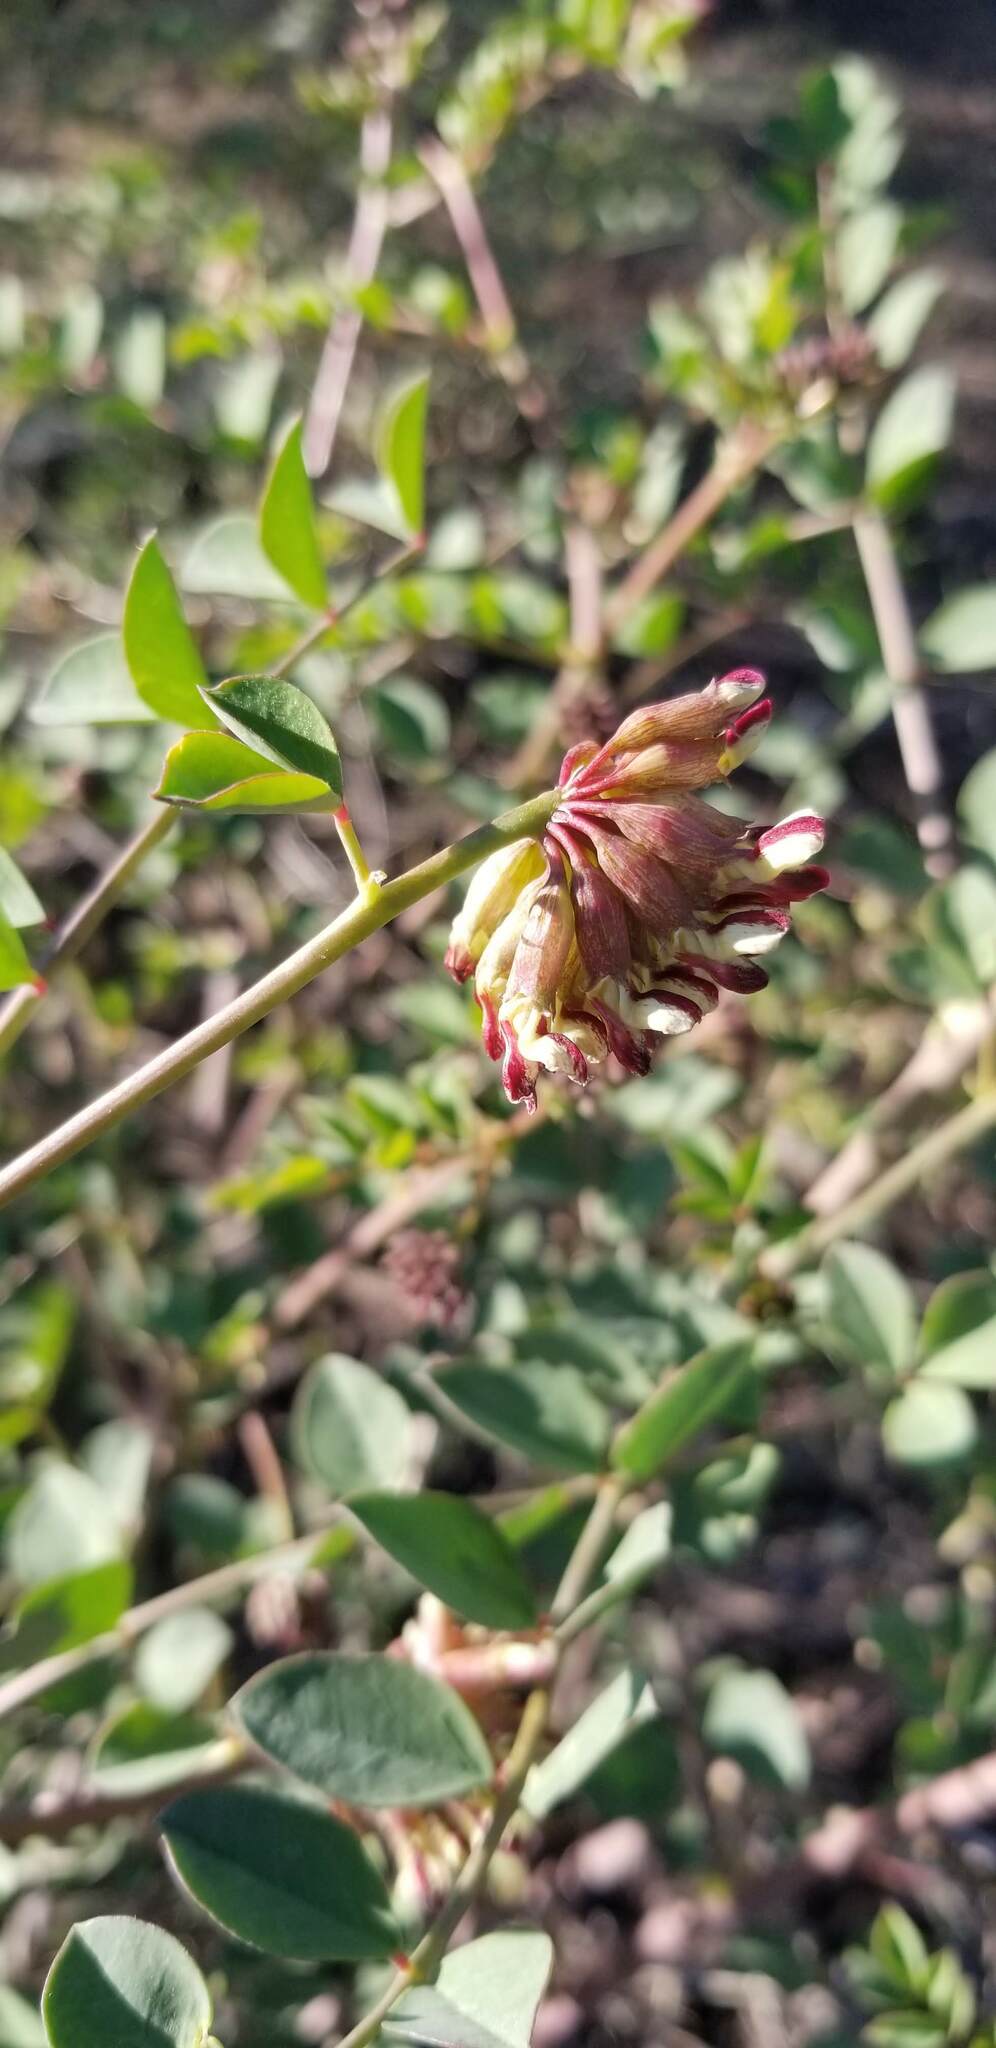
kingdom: Plantae
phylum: Tracheophyta
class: Magnoliopsida
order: Fabales
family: Fabaceae
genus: Hosackia
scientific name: Hosackia crassifolia
